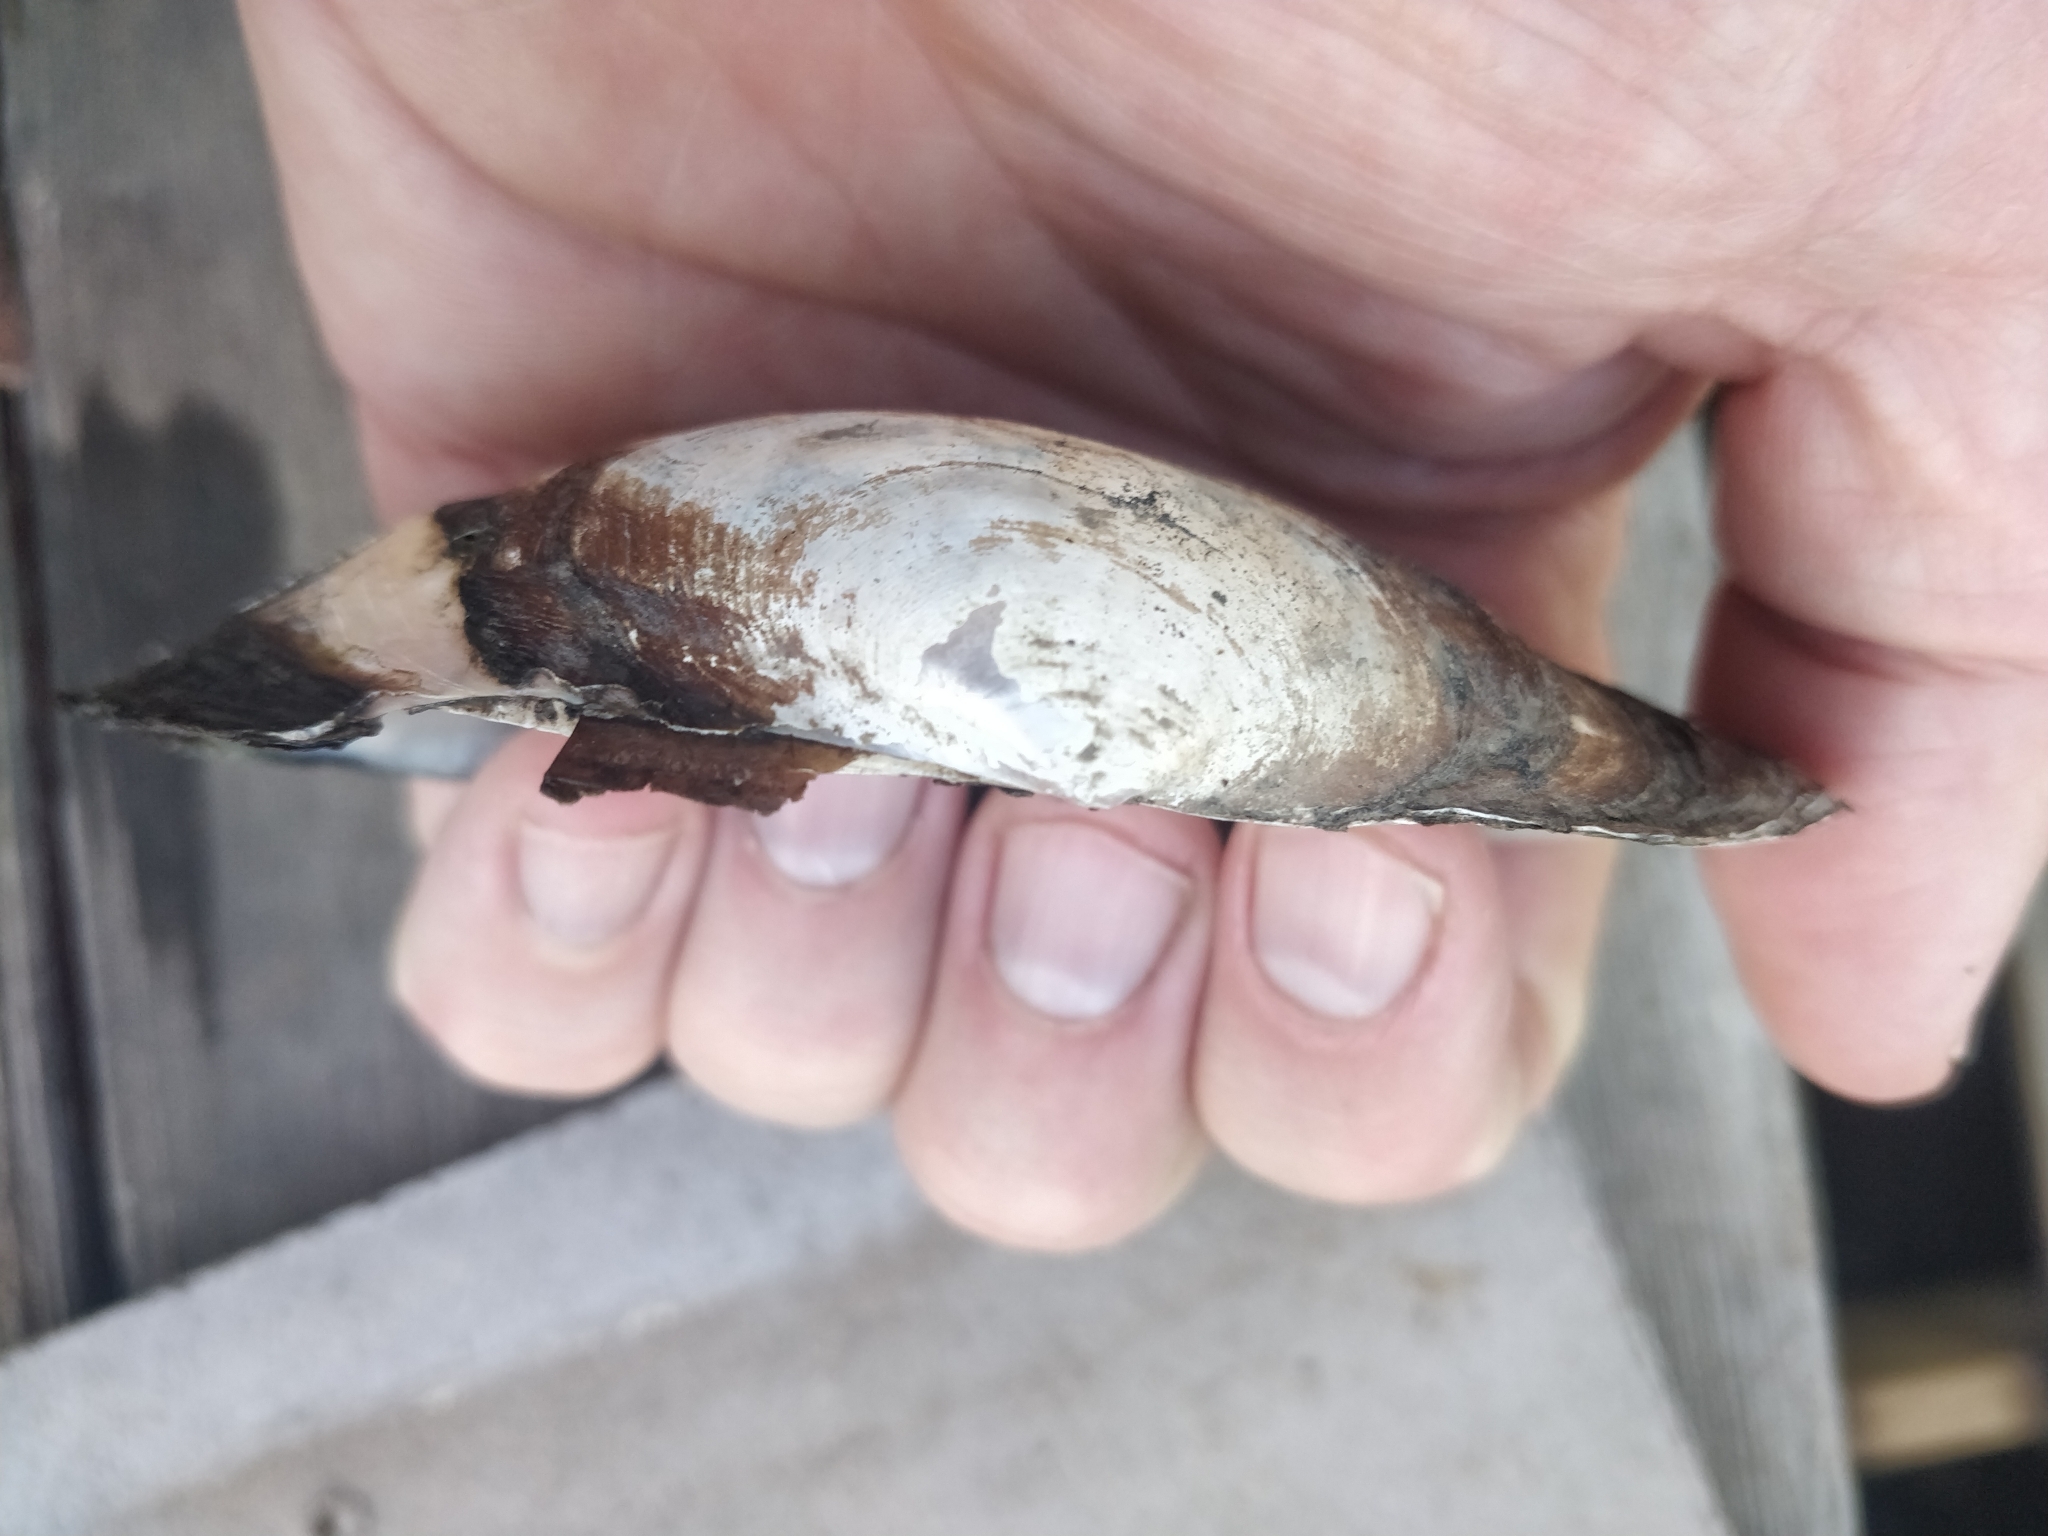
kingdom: Animalia
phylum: Mollusca
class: Bivalvia
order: Unionida
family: Unionidae
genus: Pyganodon
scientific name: Pyganodon grandis
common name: Giant floater
